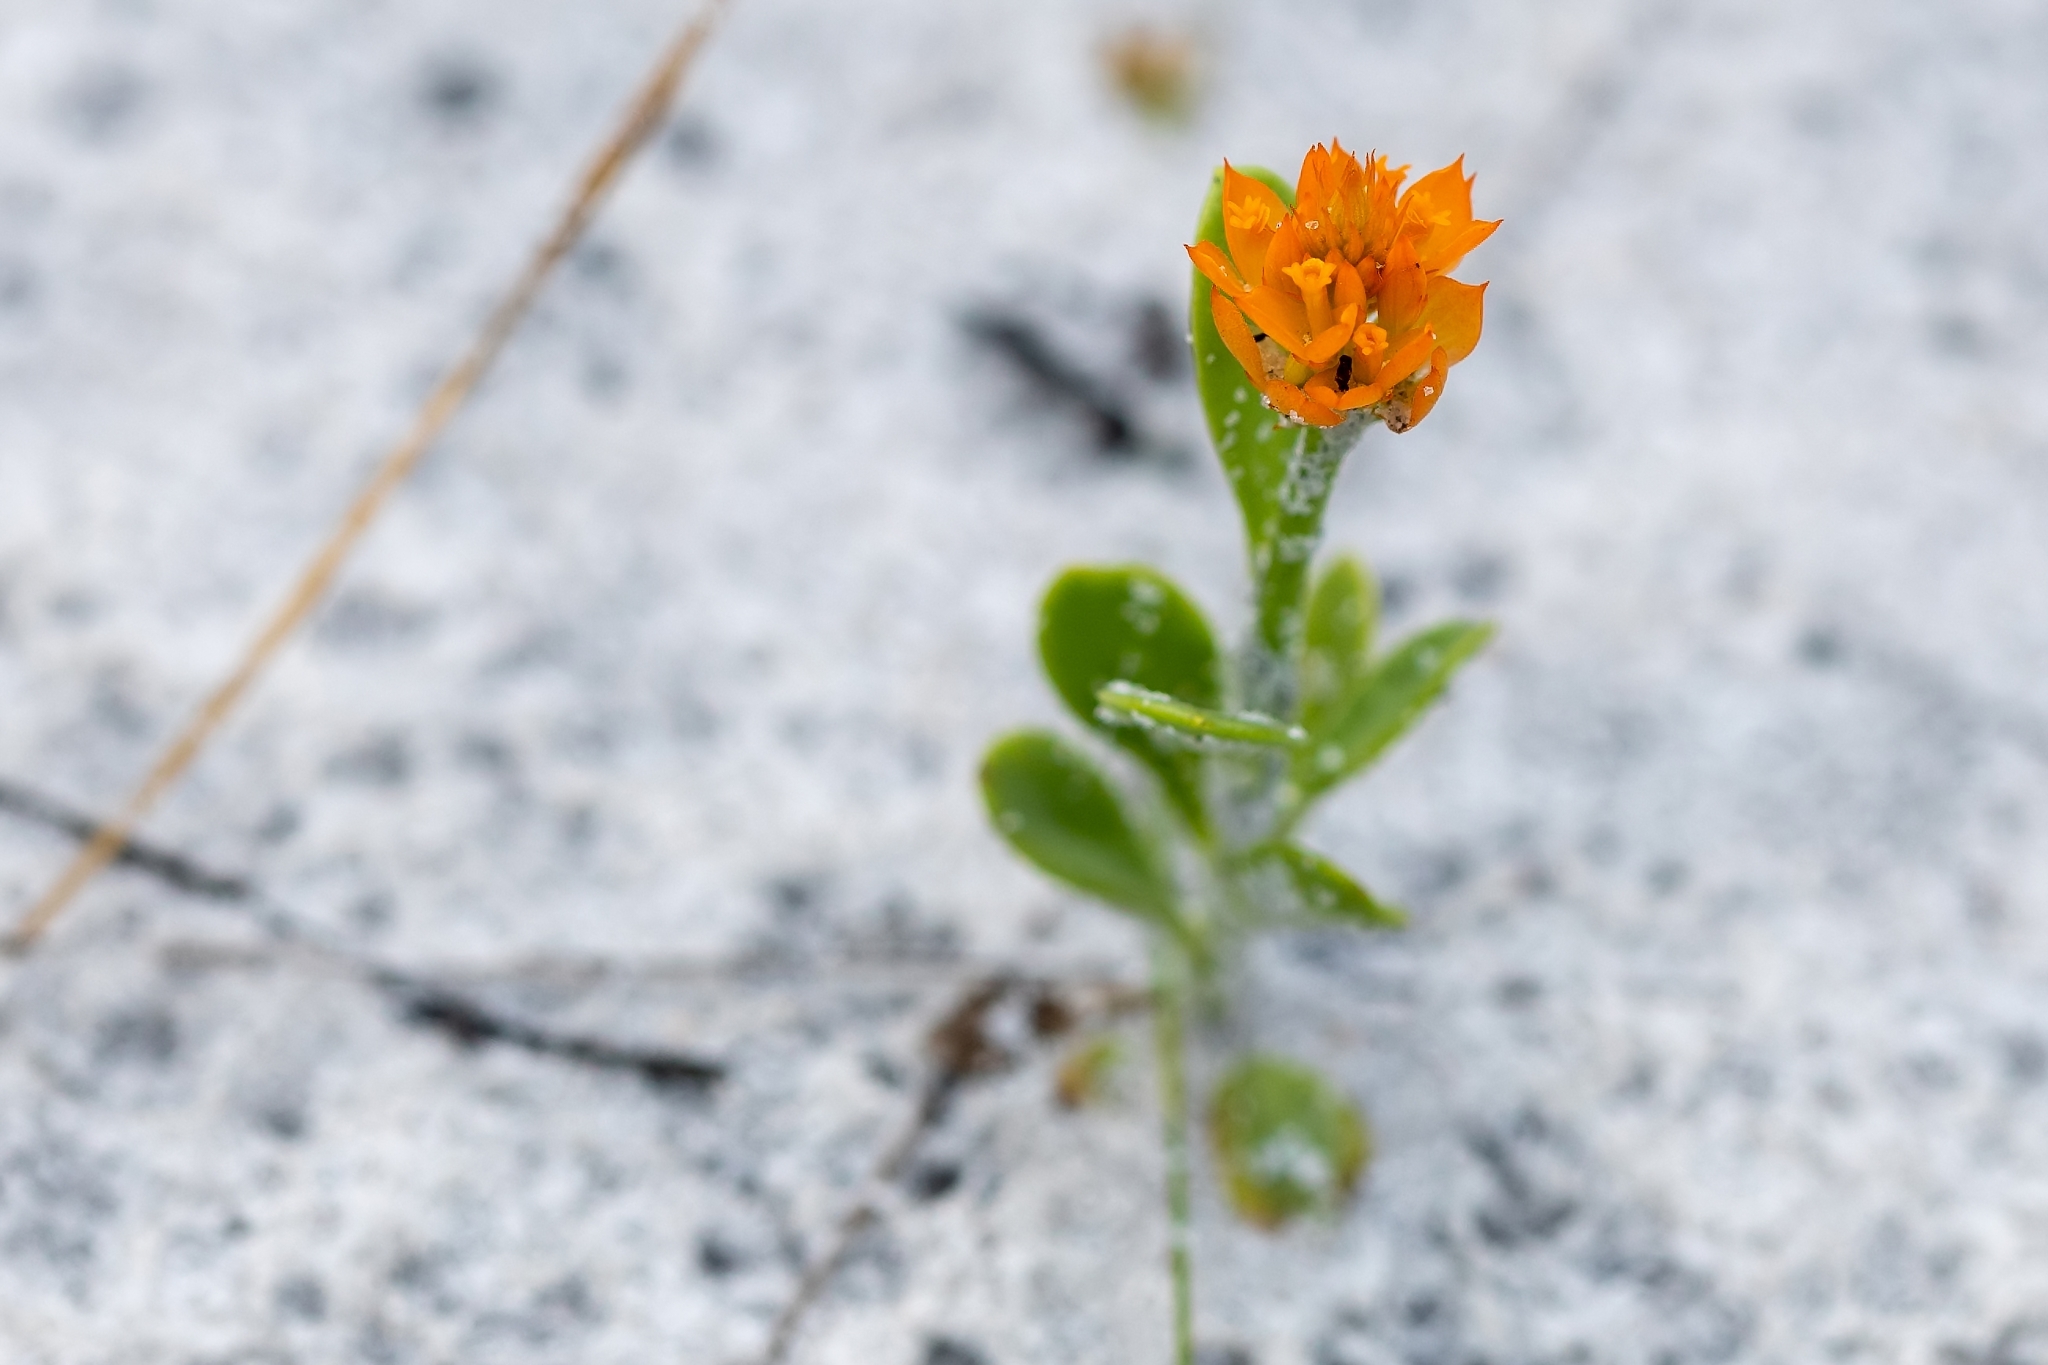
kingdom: Plantae
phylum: Tracheophyta
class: Magnoliopsida
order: Fabales
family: Polygalaceae
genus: Polygala
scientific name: Polygala lutea
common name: Orange milkwort
